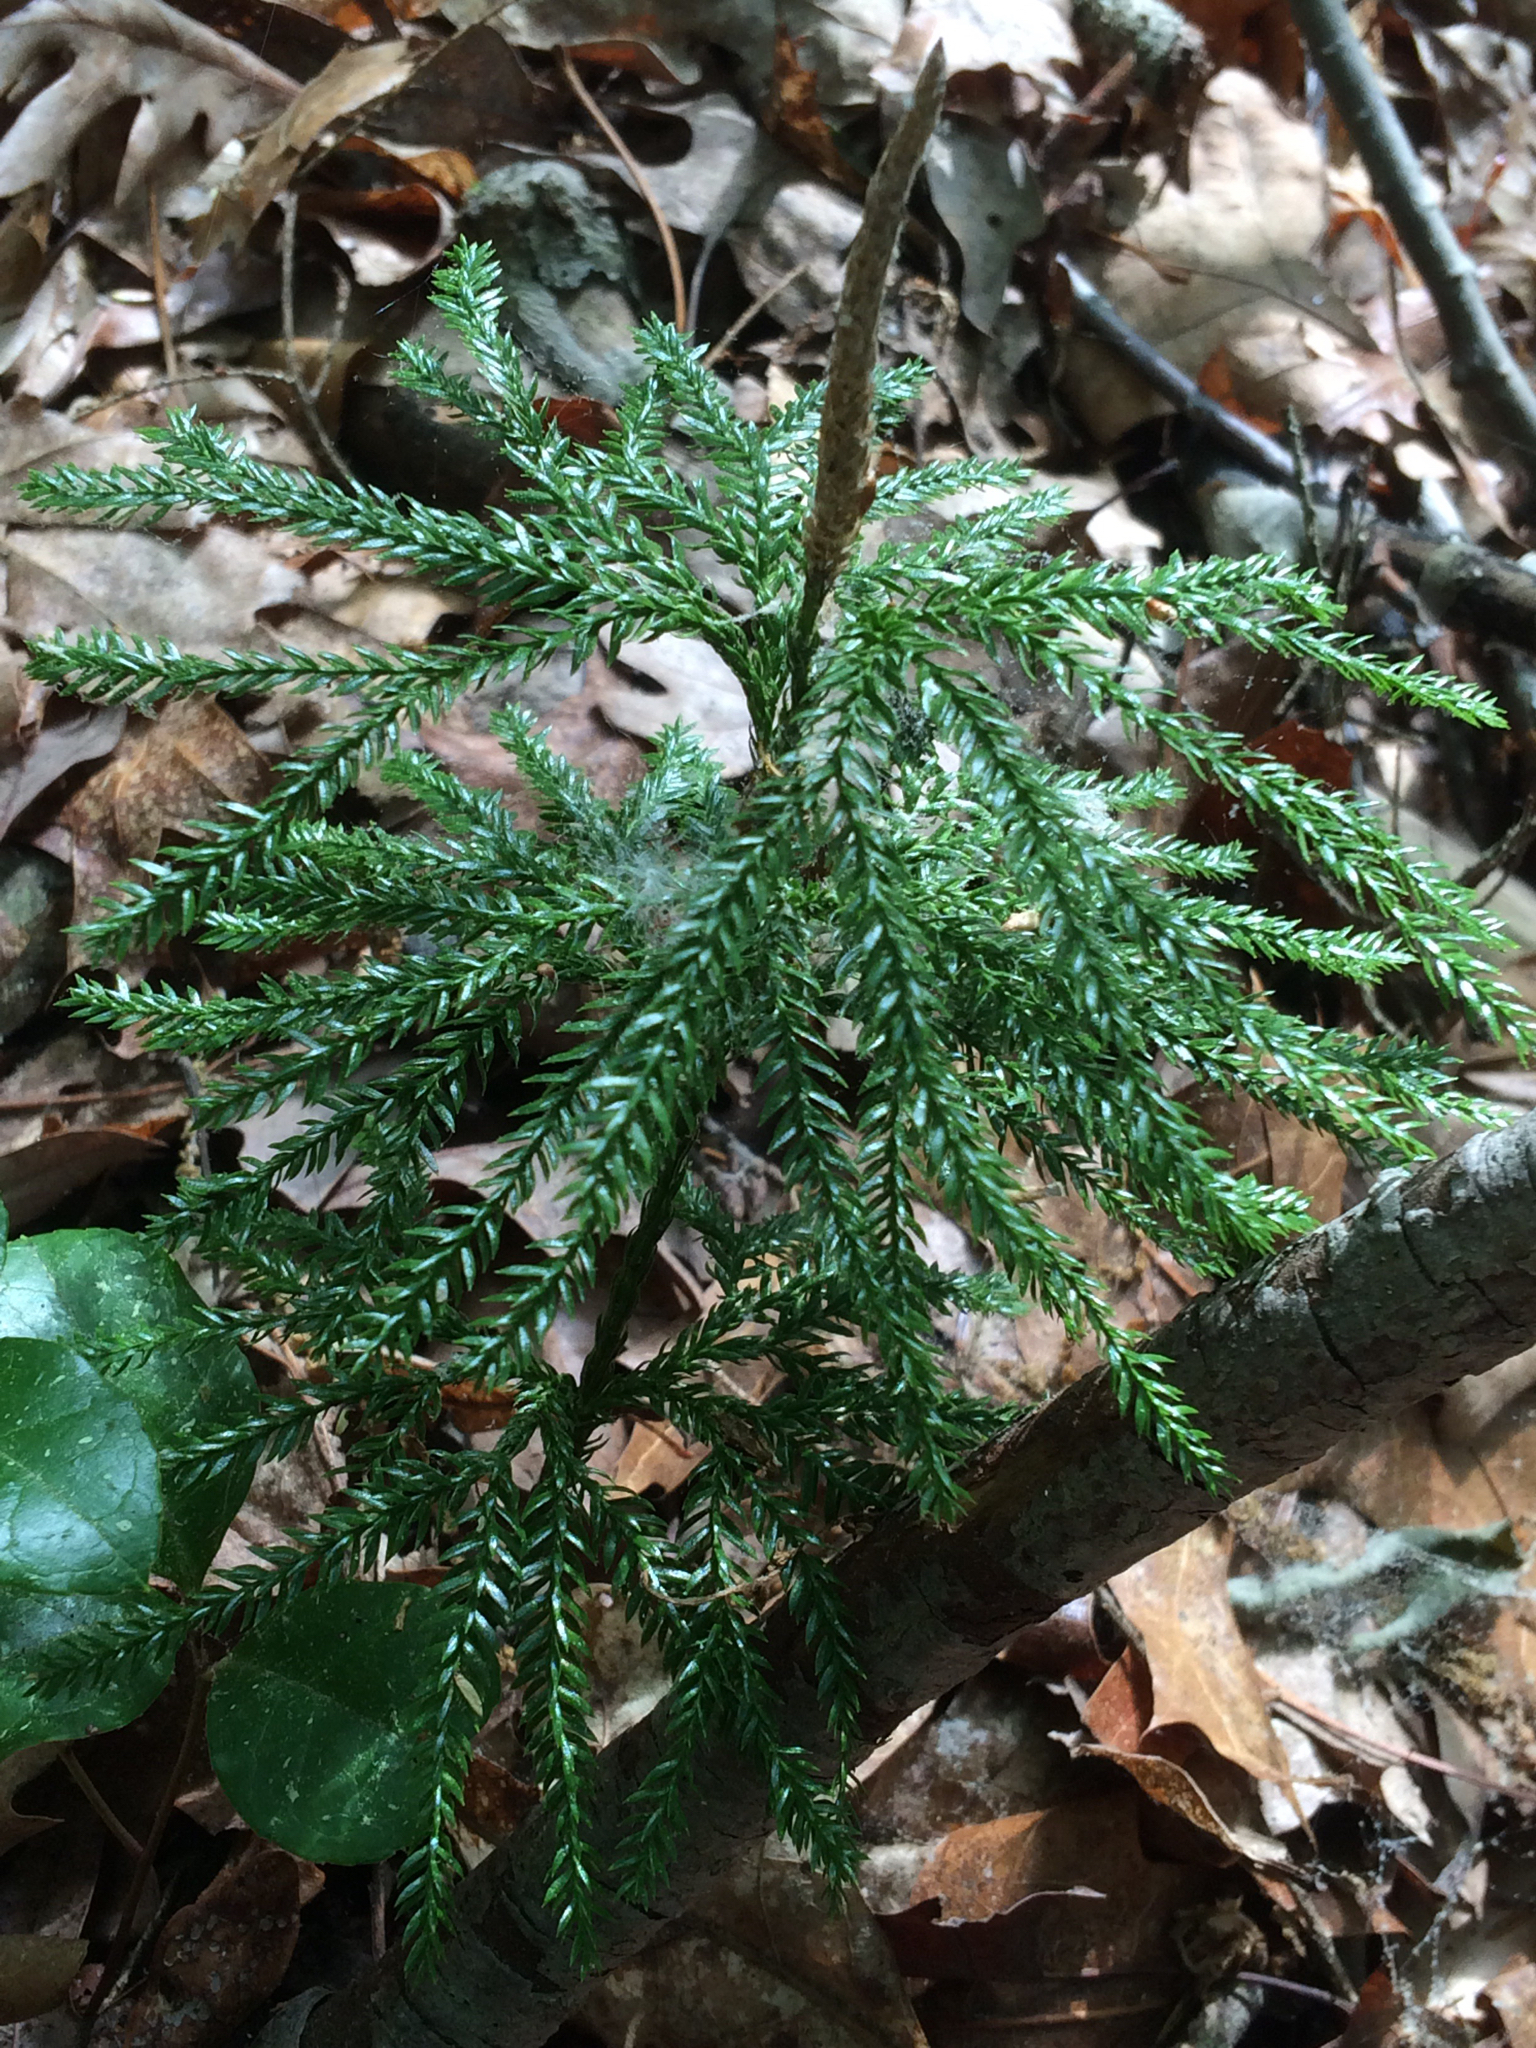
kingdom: Plantae
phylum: Tracheophyta
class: Lycopodiopsida
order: Lycopodiales
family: Lycopodiaceae
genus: Dendrolycopodium
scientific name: Dendrolycopodium obscurum
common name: Common ground-pine
